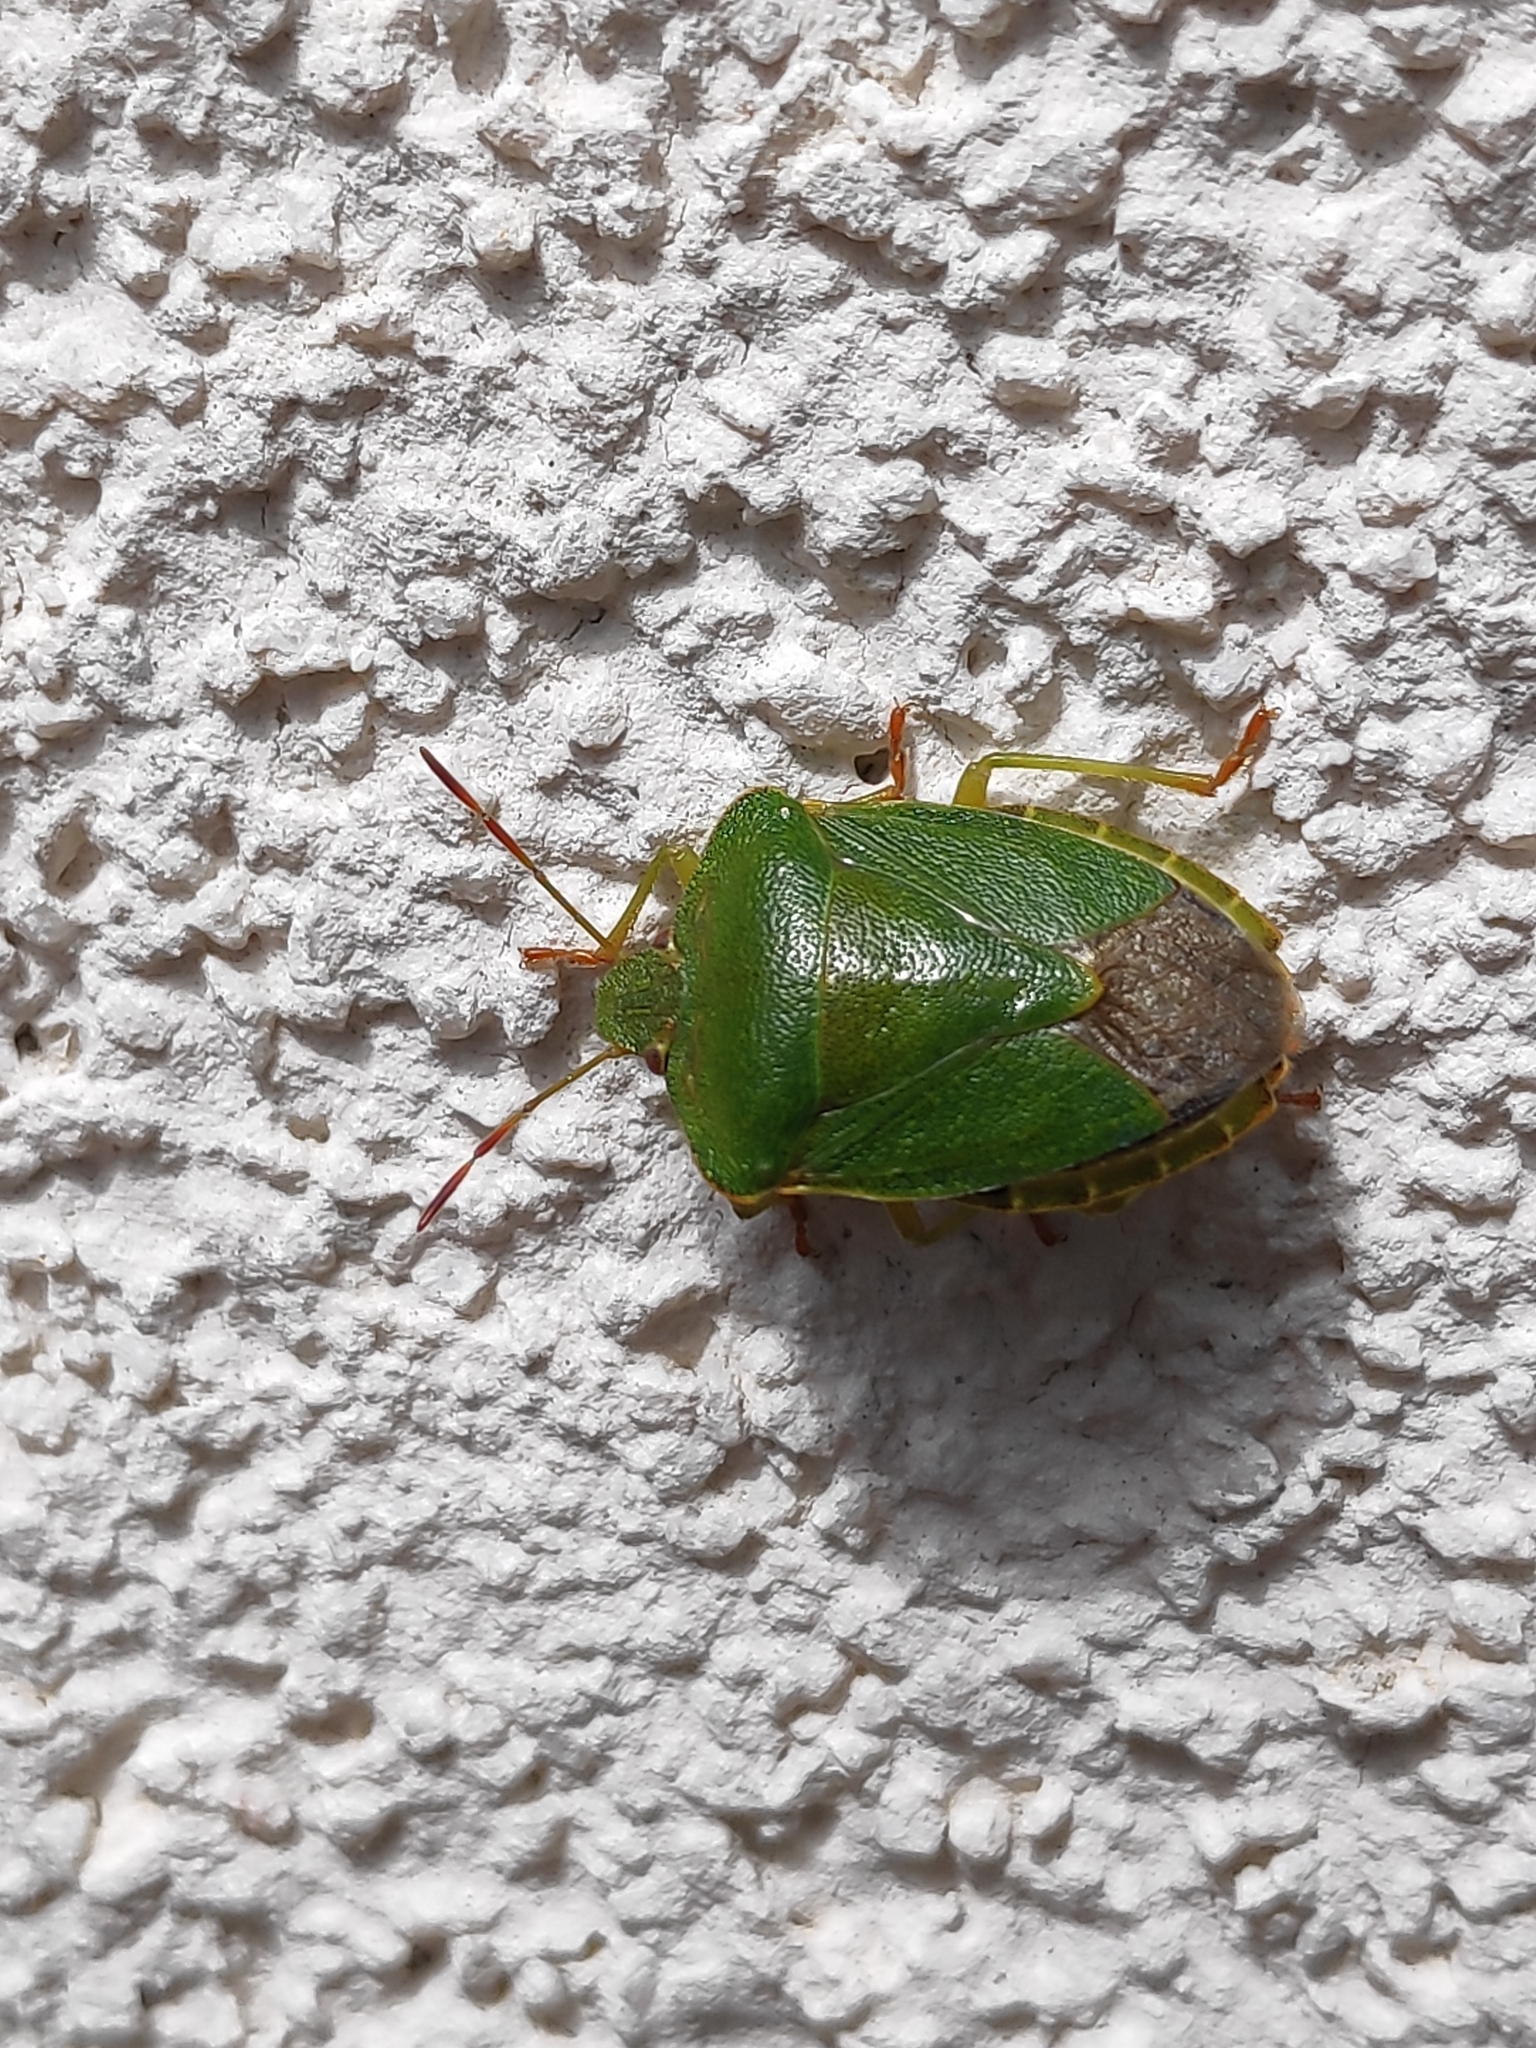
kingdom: Animalia
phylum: Arthropoda
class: Insecta
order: Hemiptera
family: Pentatomidae
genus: Palomena
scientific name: Palomena prasina
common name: Green shieldbug
